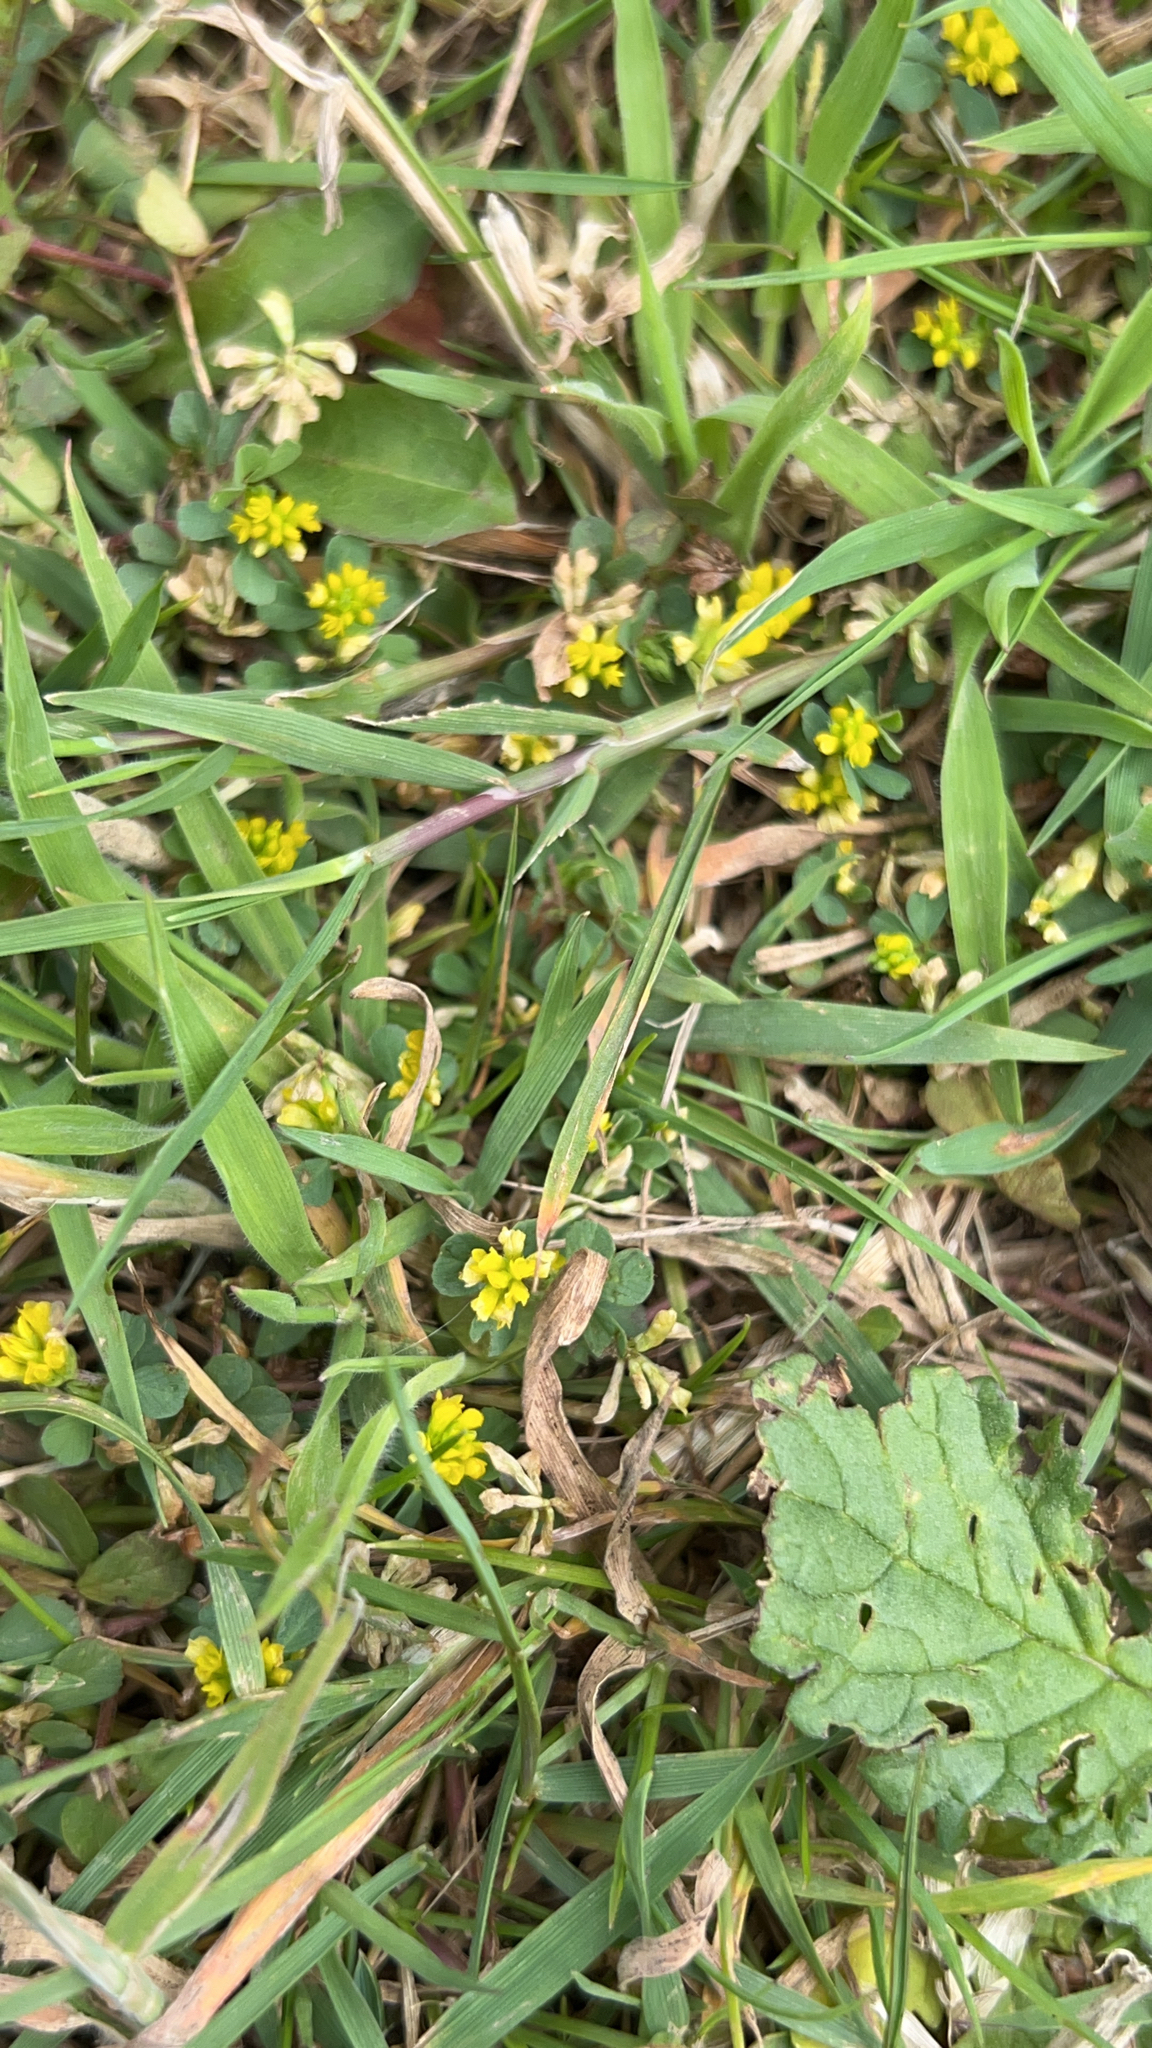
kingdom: Plantae
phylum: Tracheophyta
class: Magnoliopsida
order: Fabales
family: Fabaceae
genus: Trifolium
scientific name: Trifolium dubium
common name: Suckling clover
